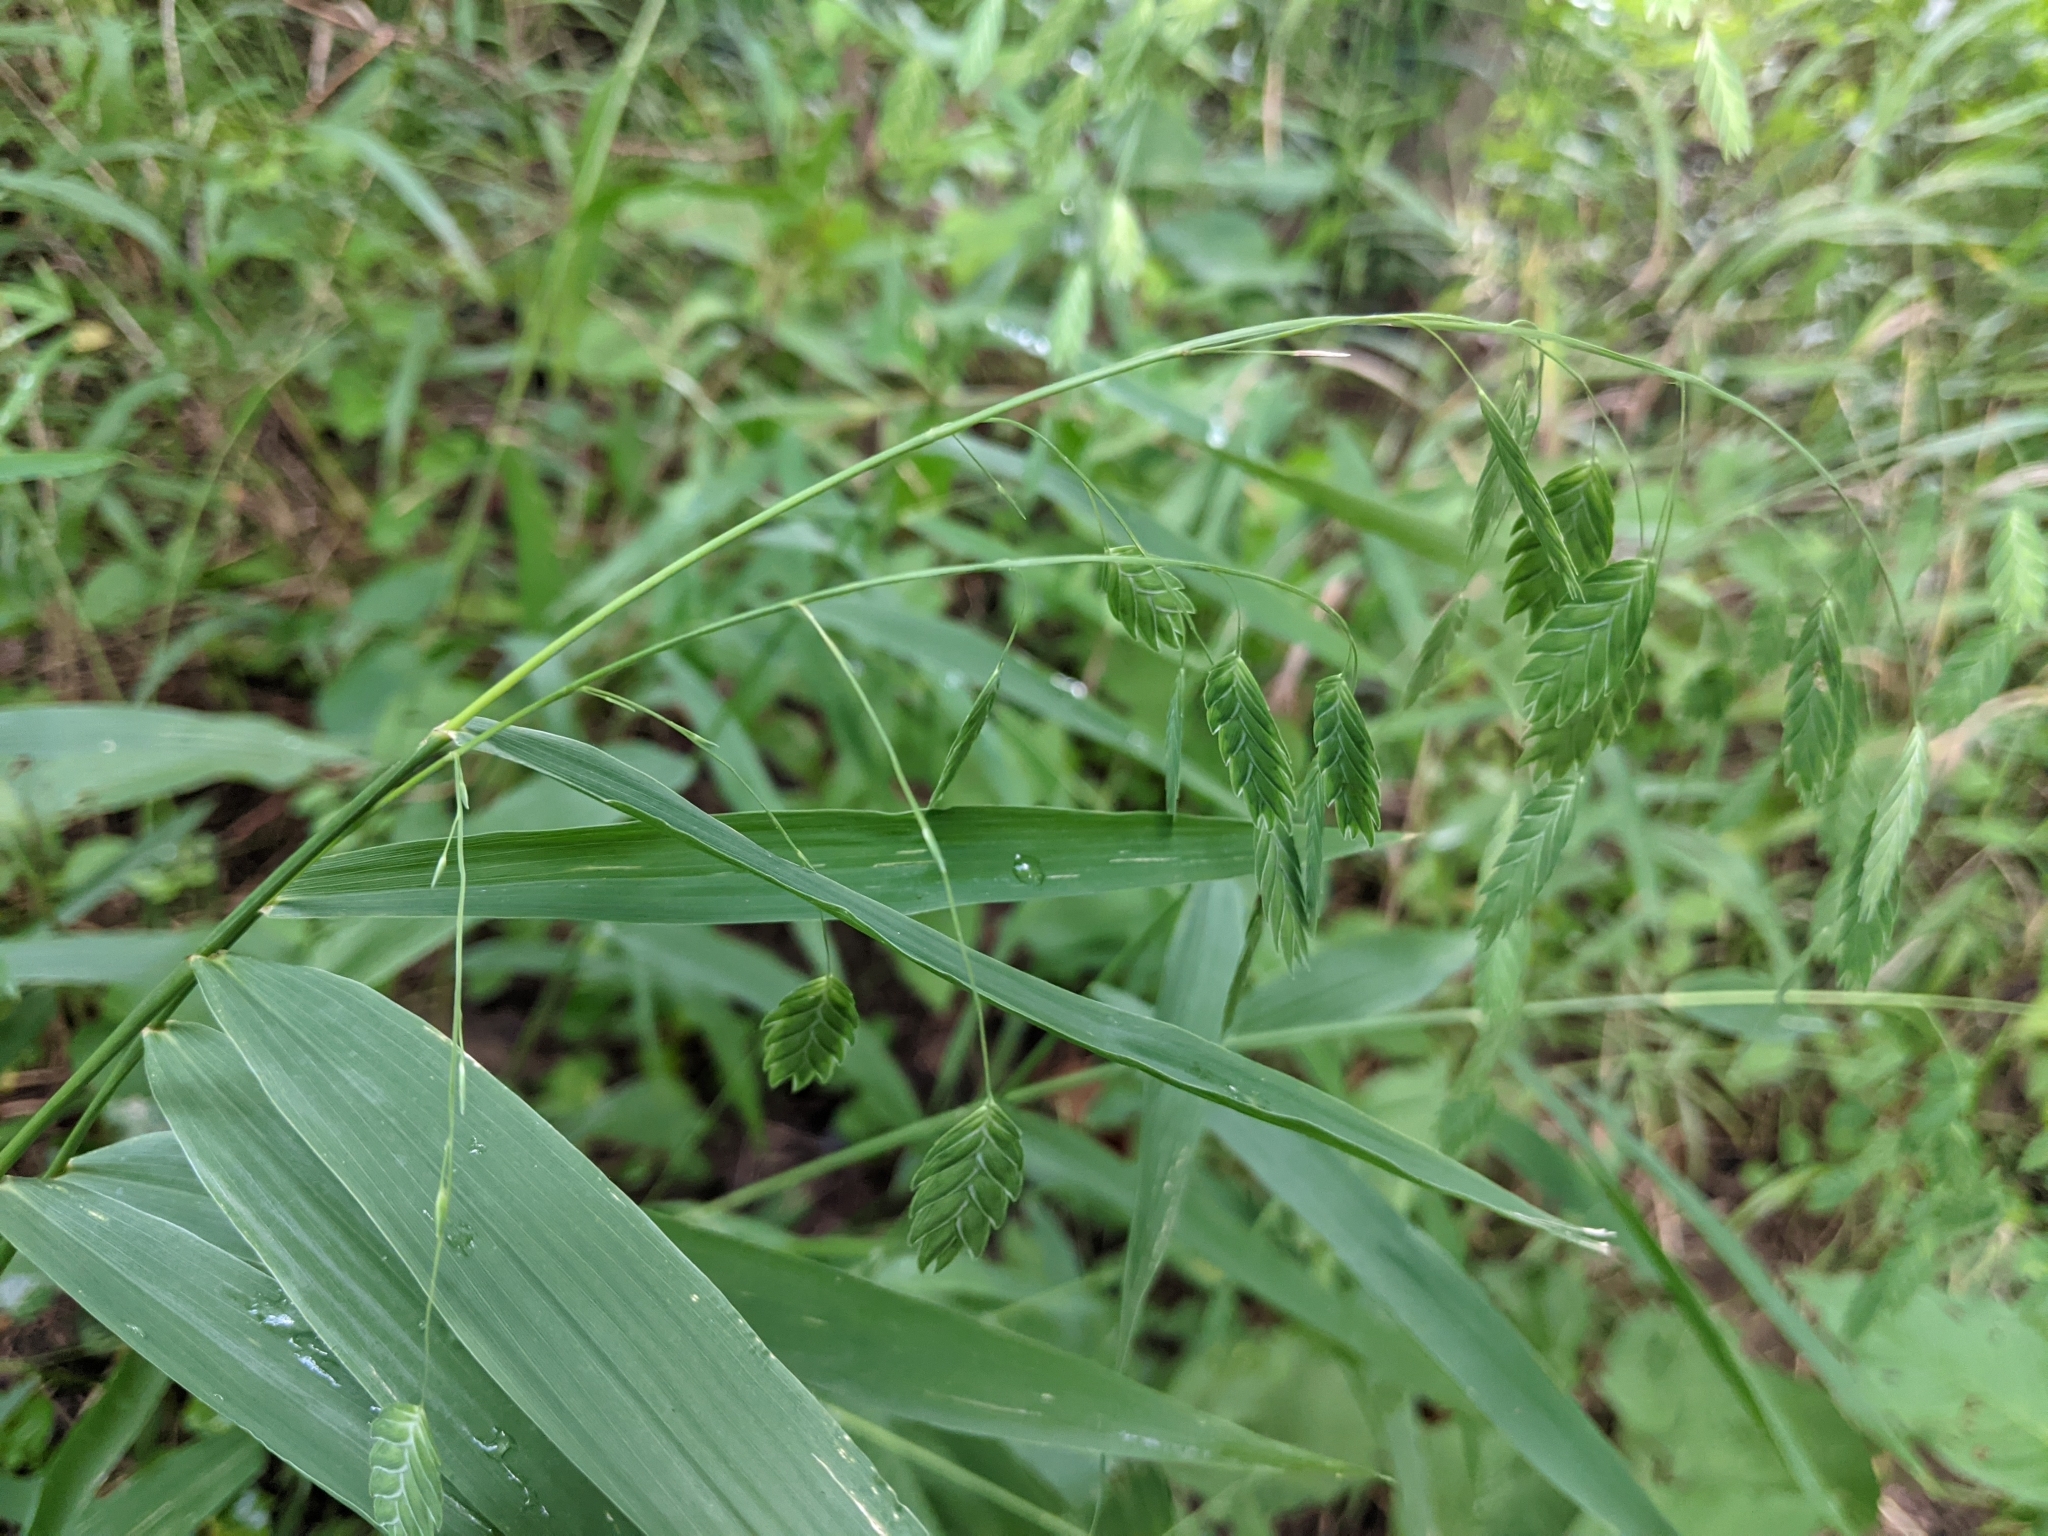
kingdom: Plantae
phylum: Tracheophyta
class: Liliopsida
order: Poales
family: Poaceae
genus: Chasmanthium
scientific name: Chasmanthium latifolium
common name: Broad-leaved chasmanthium
